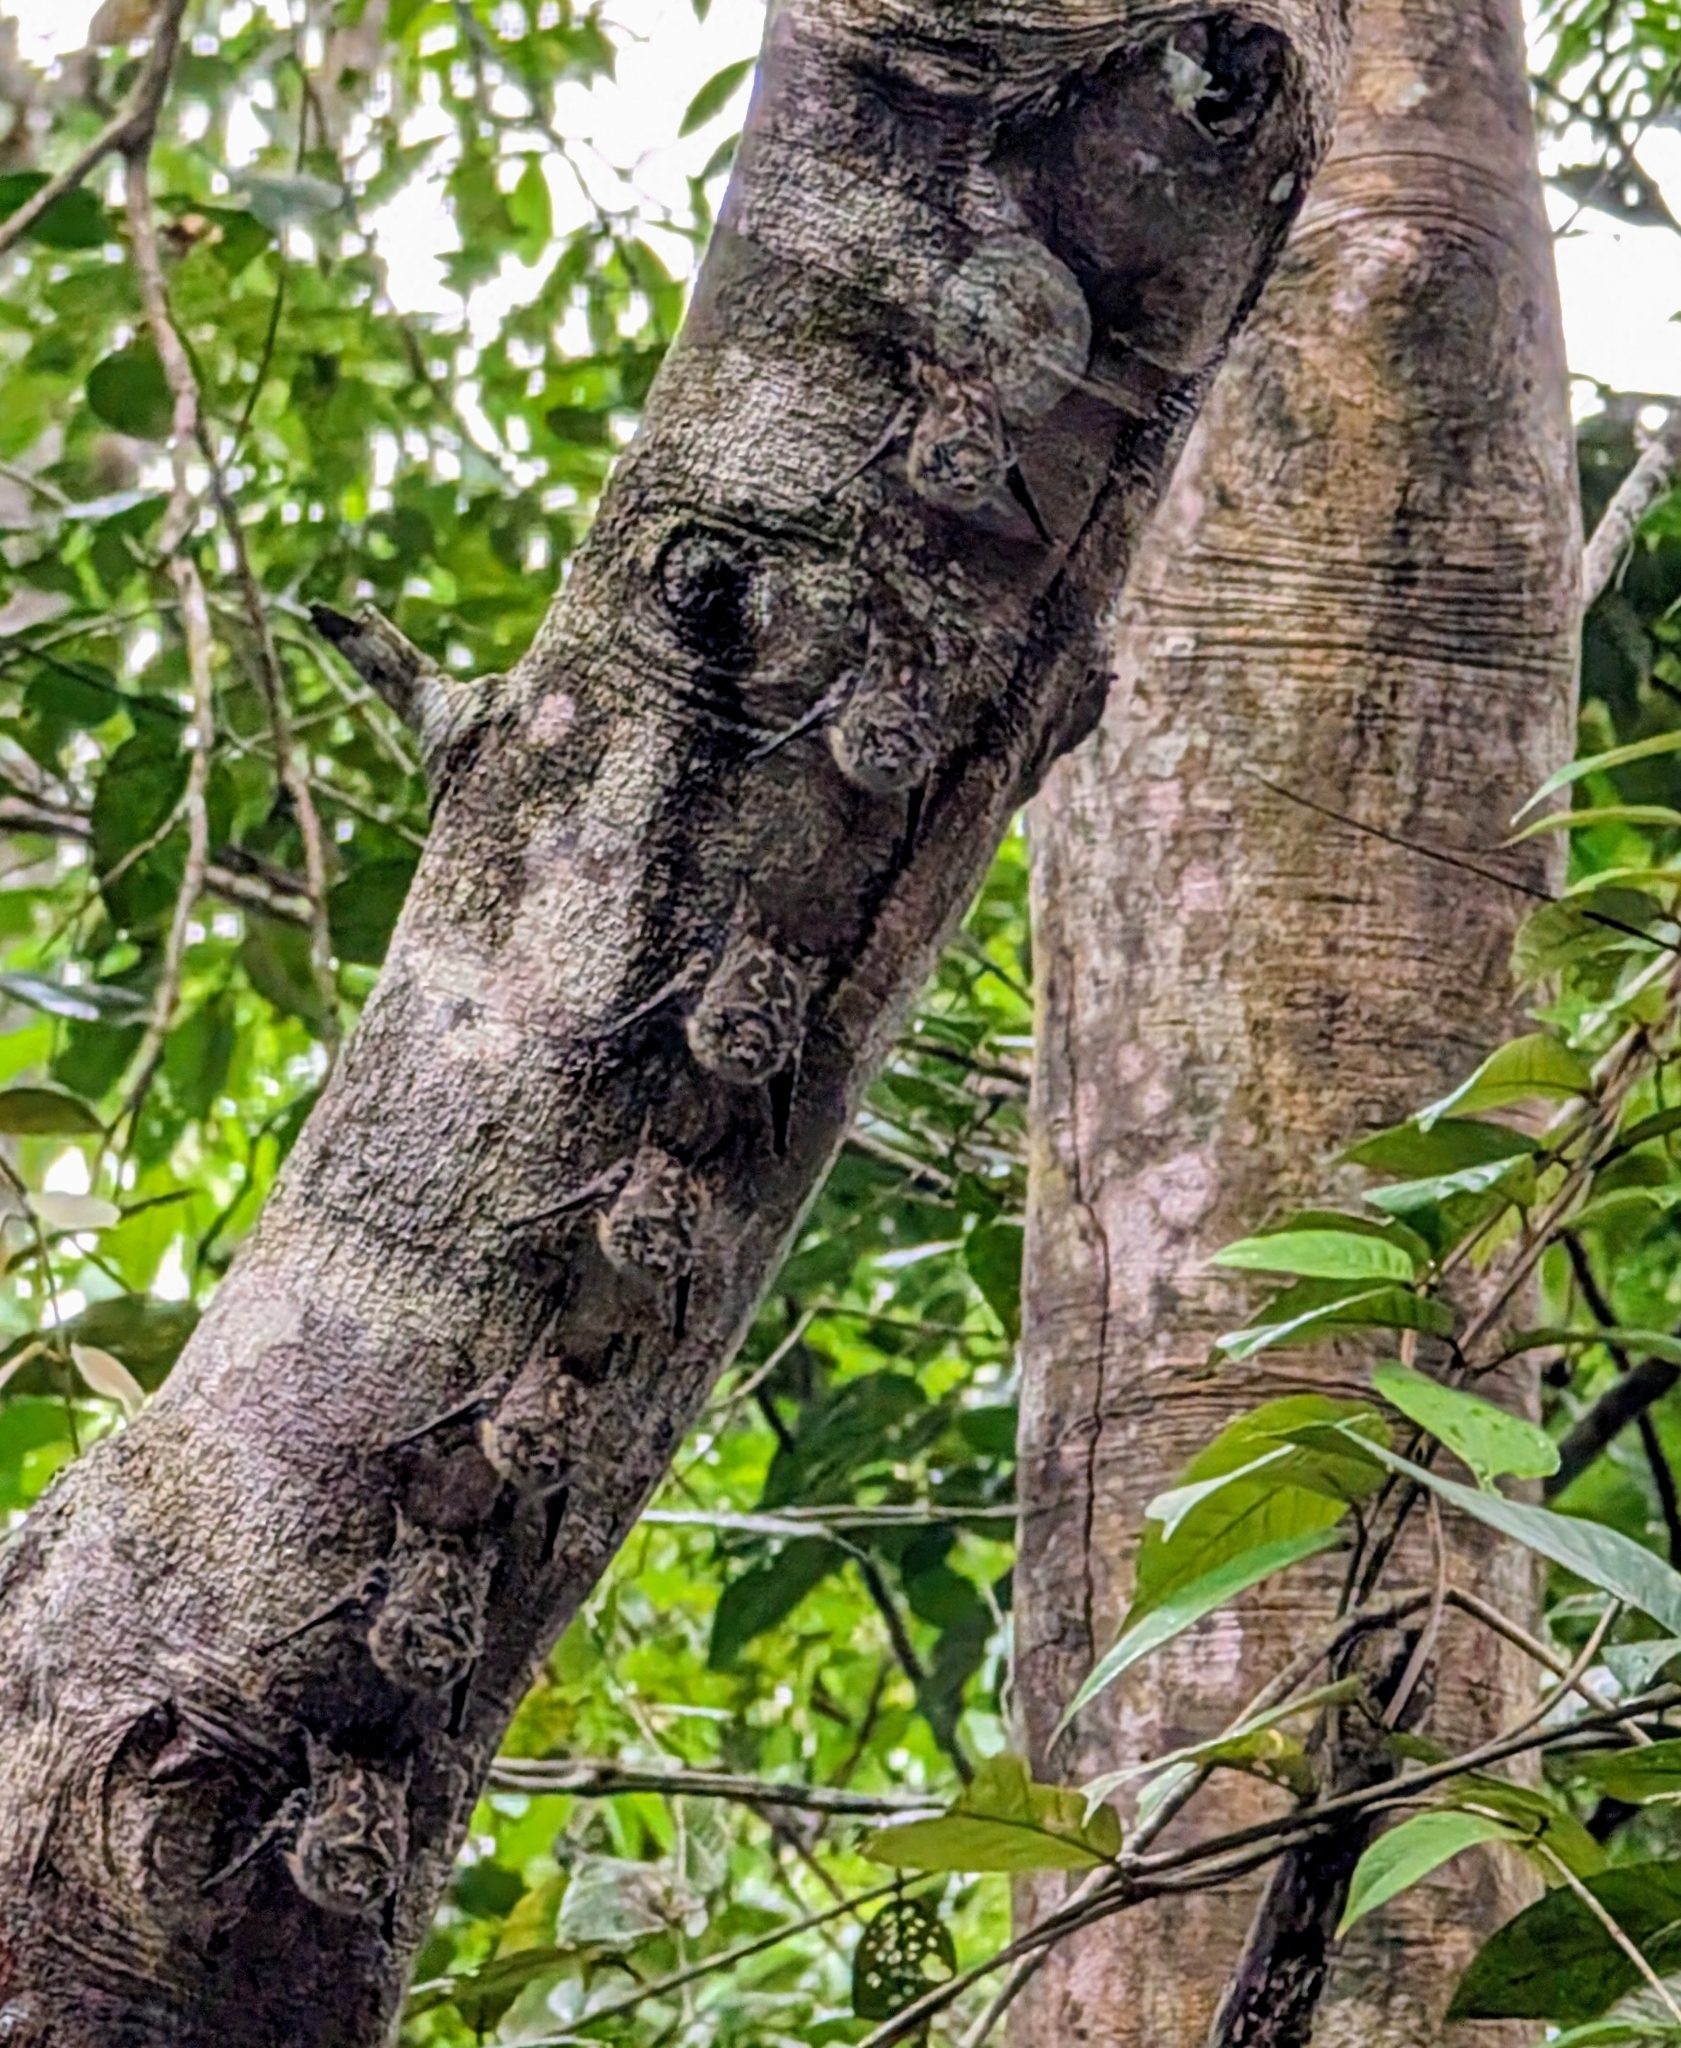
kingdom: Animalia
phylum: Chordata
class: Mammalia
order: Chiroptera
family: Emballonuridae
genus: Rhynchonycteris
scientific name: Rhynchonycteris naso
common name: Proboscis bat
